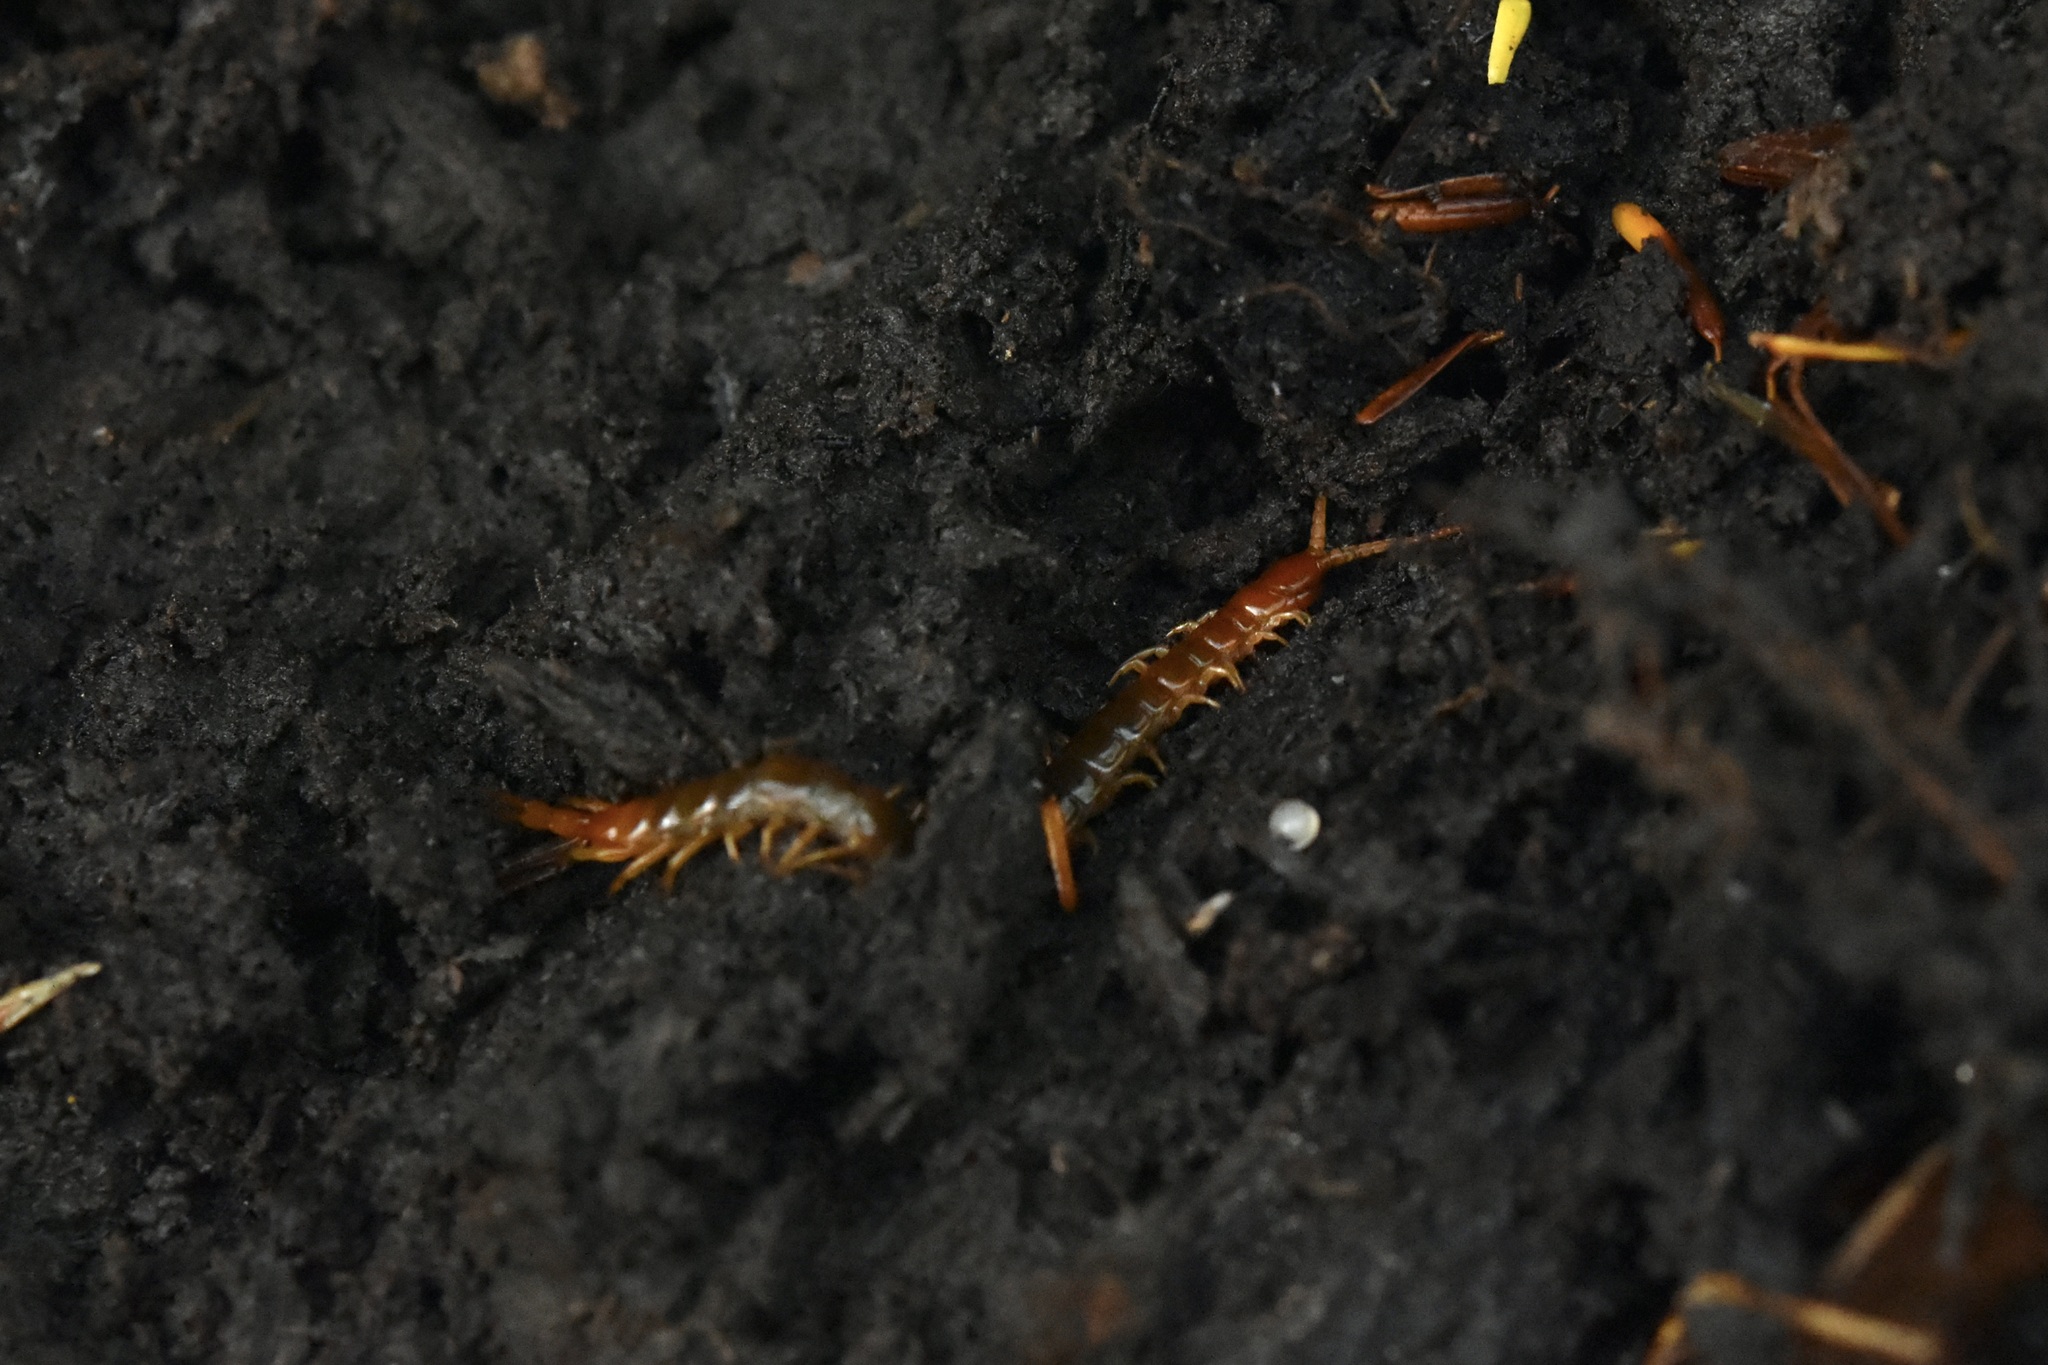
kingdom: Animalia
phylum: Arthropoda
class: Chilopoda
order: Scolopendromorpha
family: Scolopocryptopidae
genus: Scolopocryptops
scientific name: Scolopocryptops sexspinosus
